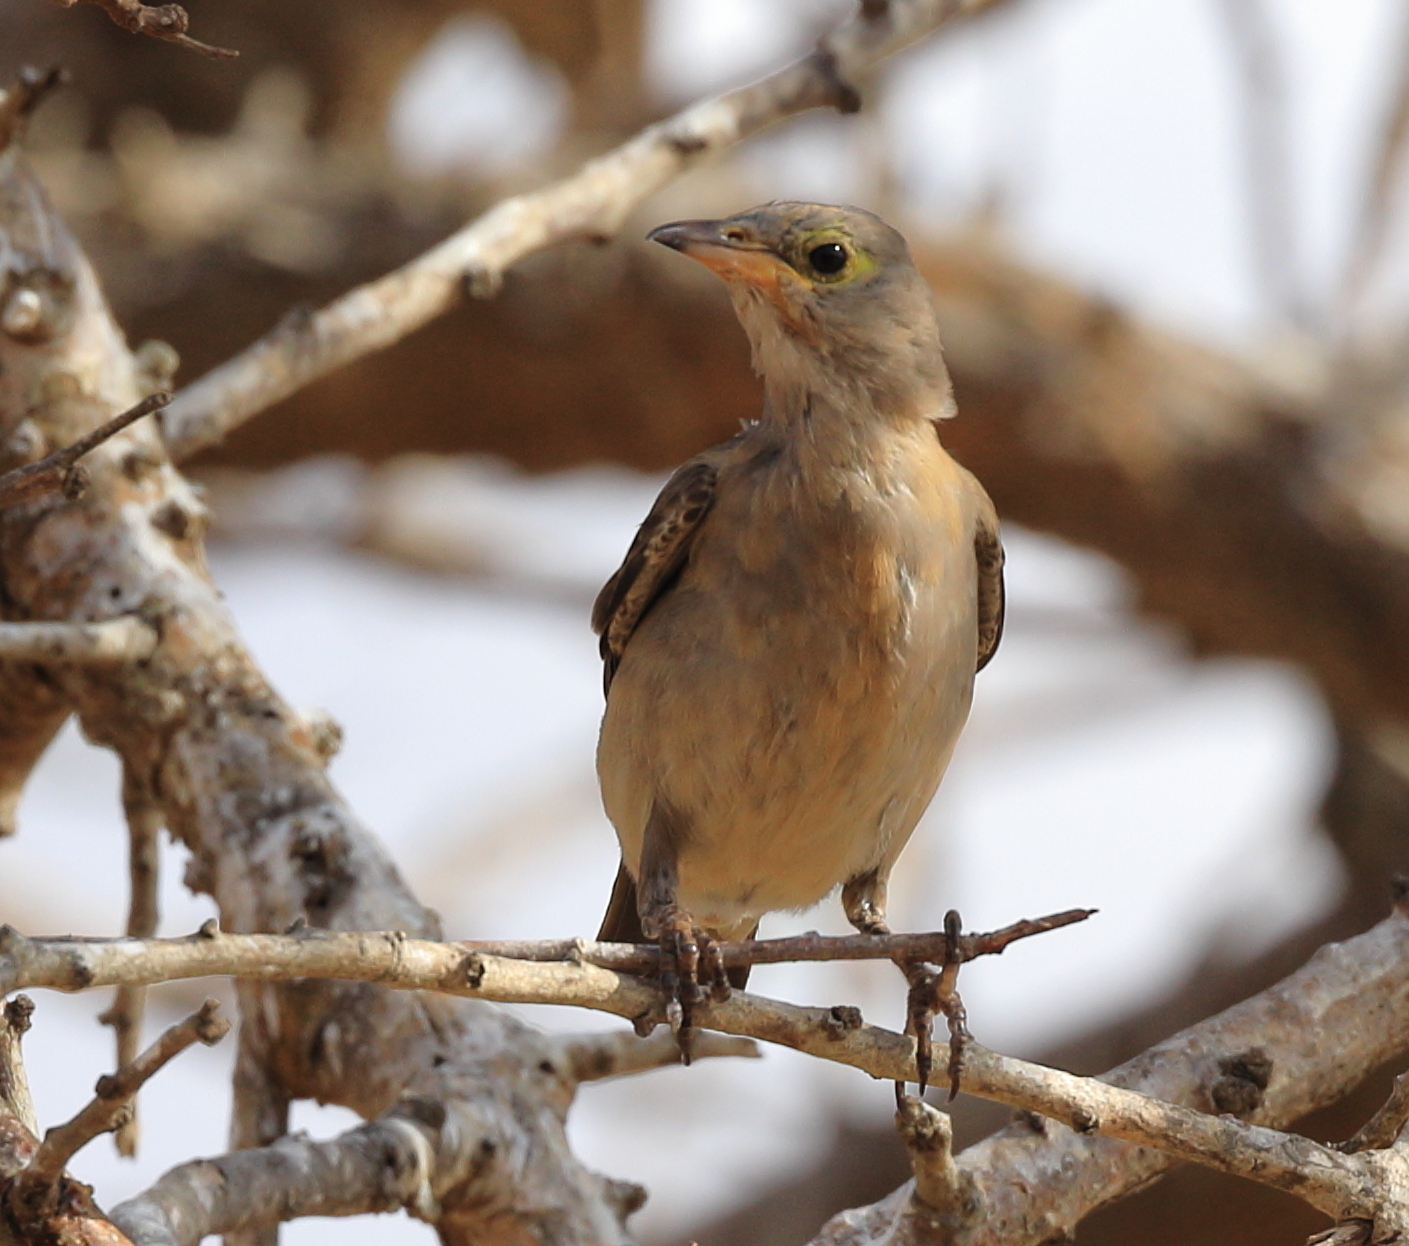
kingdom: Animalia
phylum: Chordata
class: Aves
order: Passeriformes
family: Sturnidae
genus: Creatophora
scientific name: Creatophora cinerea
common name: Wattled starling
